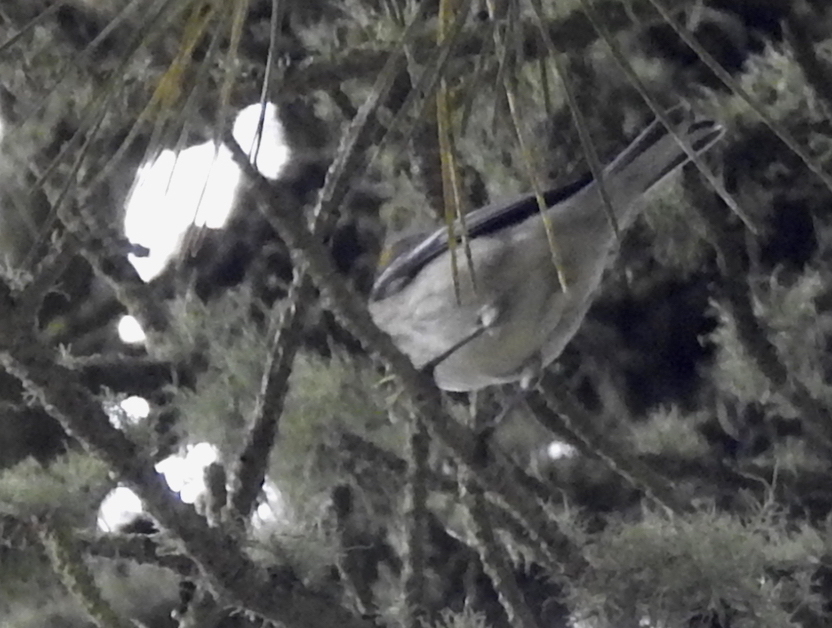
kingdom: Animalia
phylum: Chordata
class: Aves
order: Passeriformes
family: Parulidae
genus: Setophaga
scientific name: Setophaga occidentalis
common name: Hermit warbler
